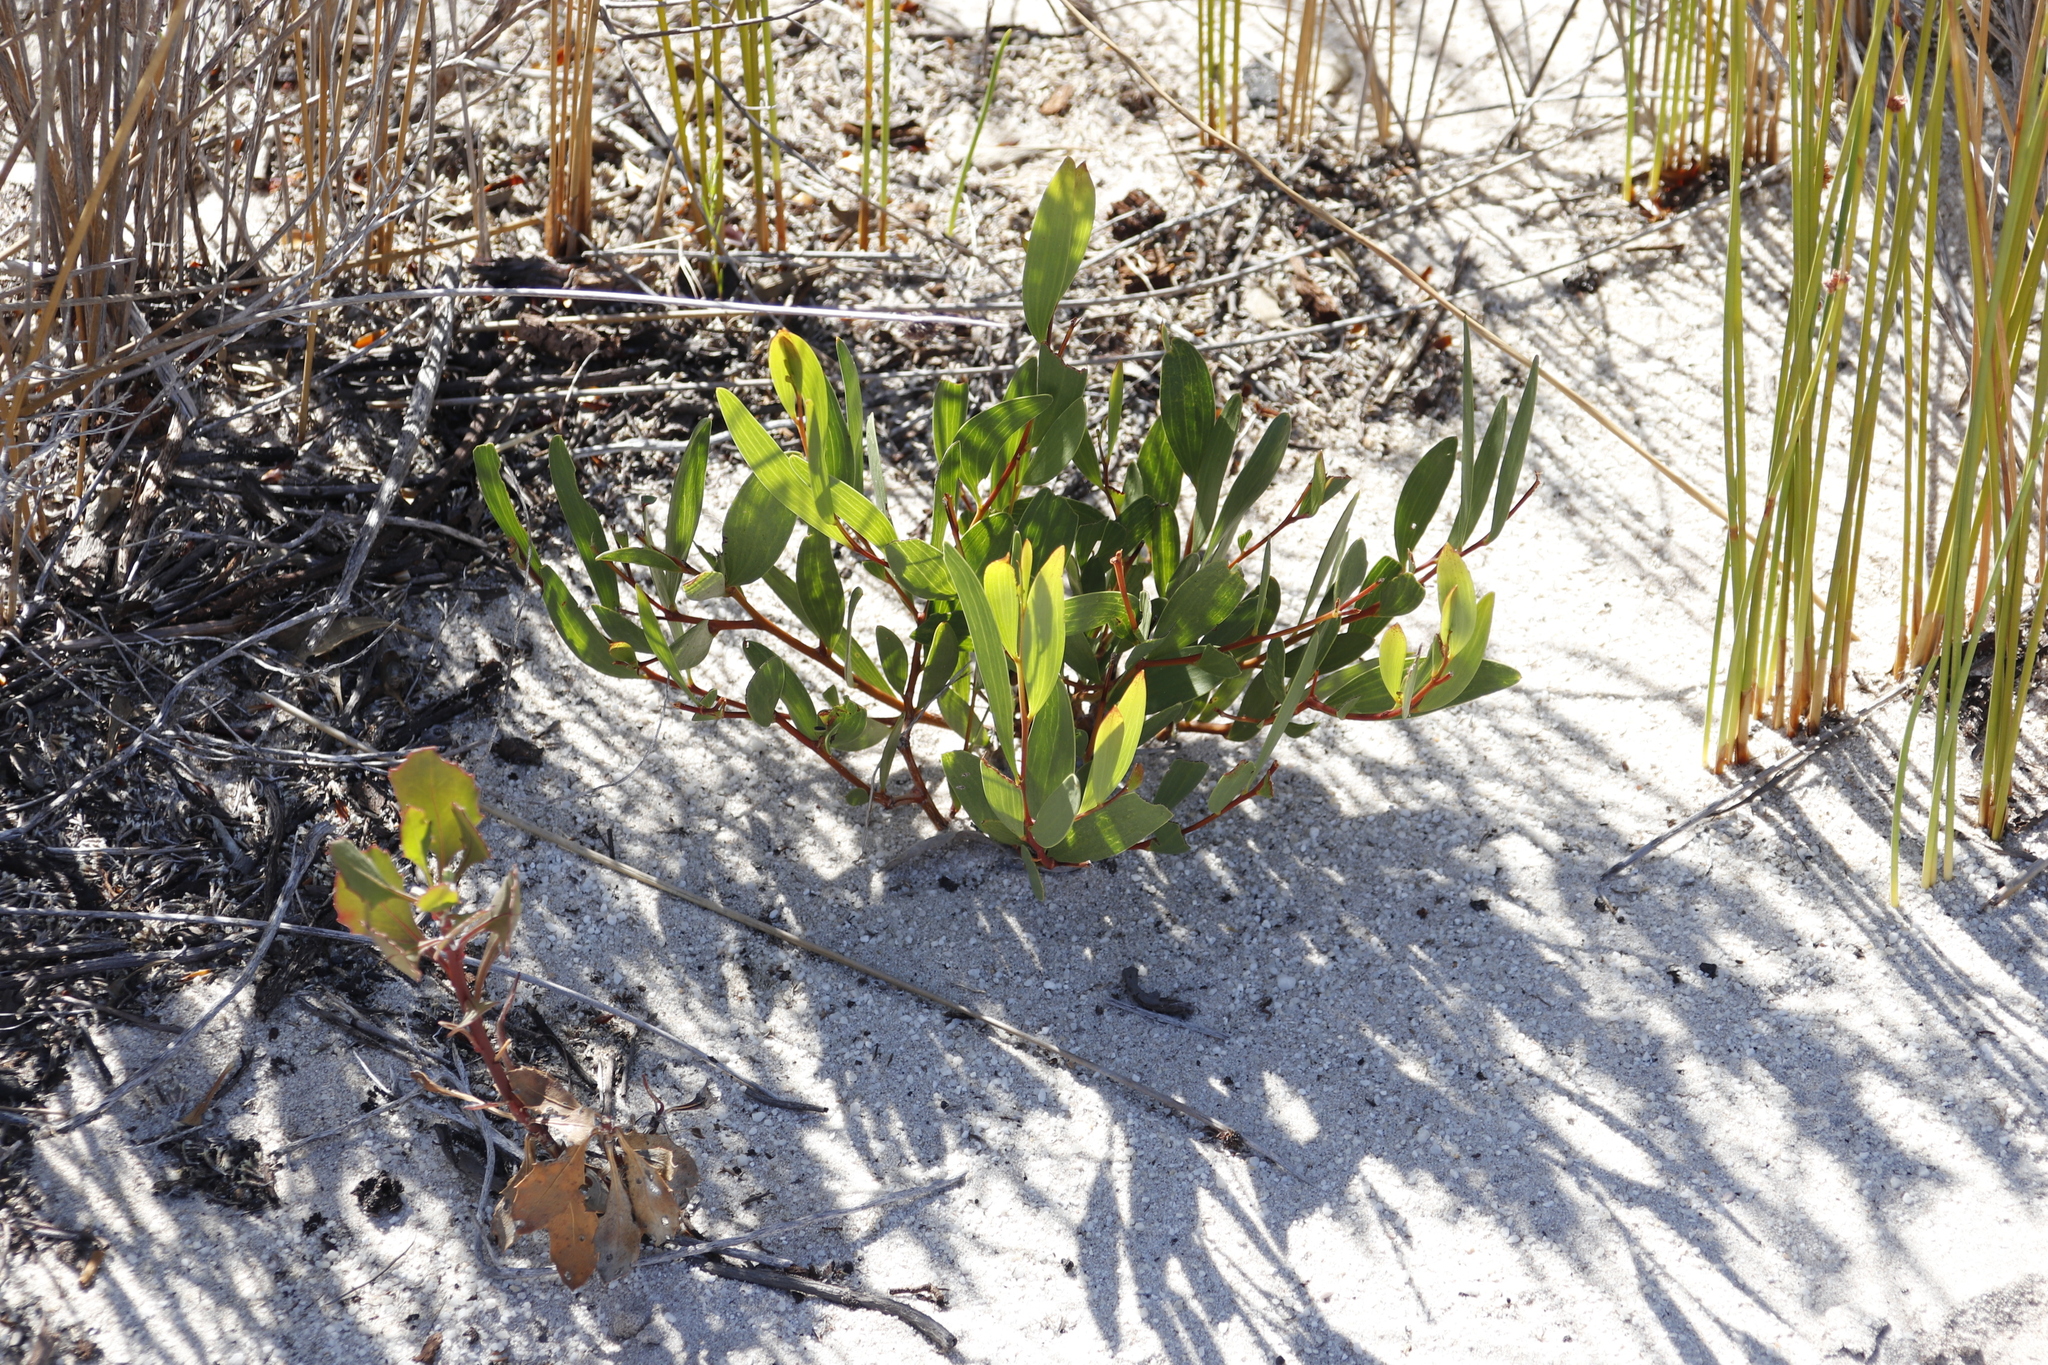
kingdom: Plantae
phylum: Tracheophyta
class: Magnoliopsida
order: Fabales
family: Fabaceae
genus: Acacia
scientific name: Acacia cyclops
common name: Coastal wattle
